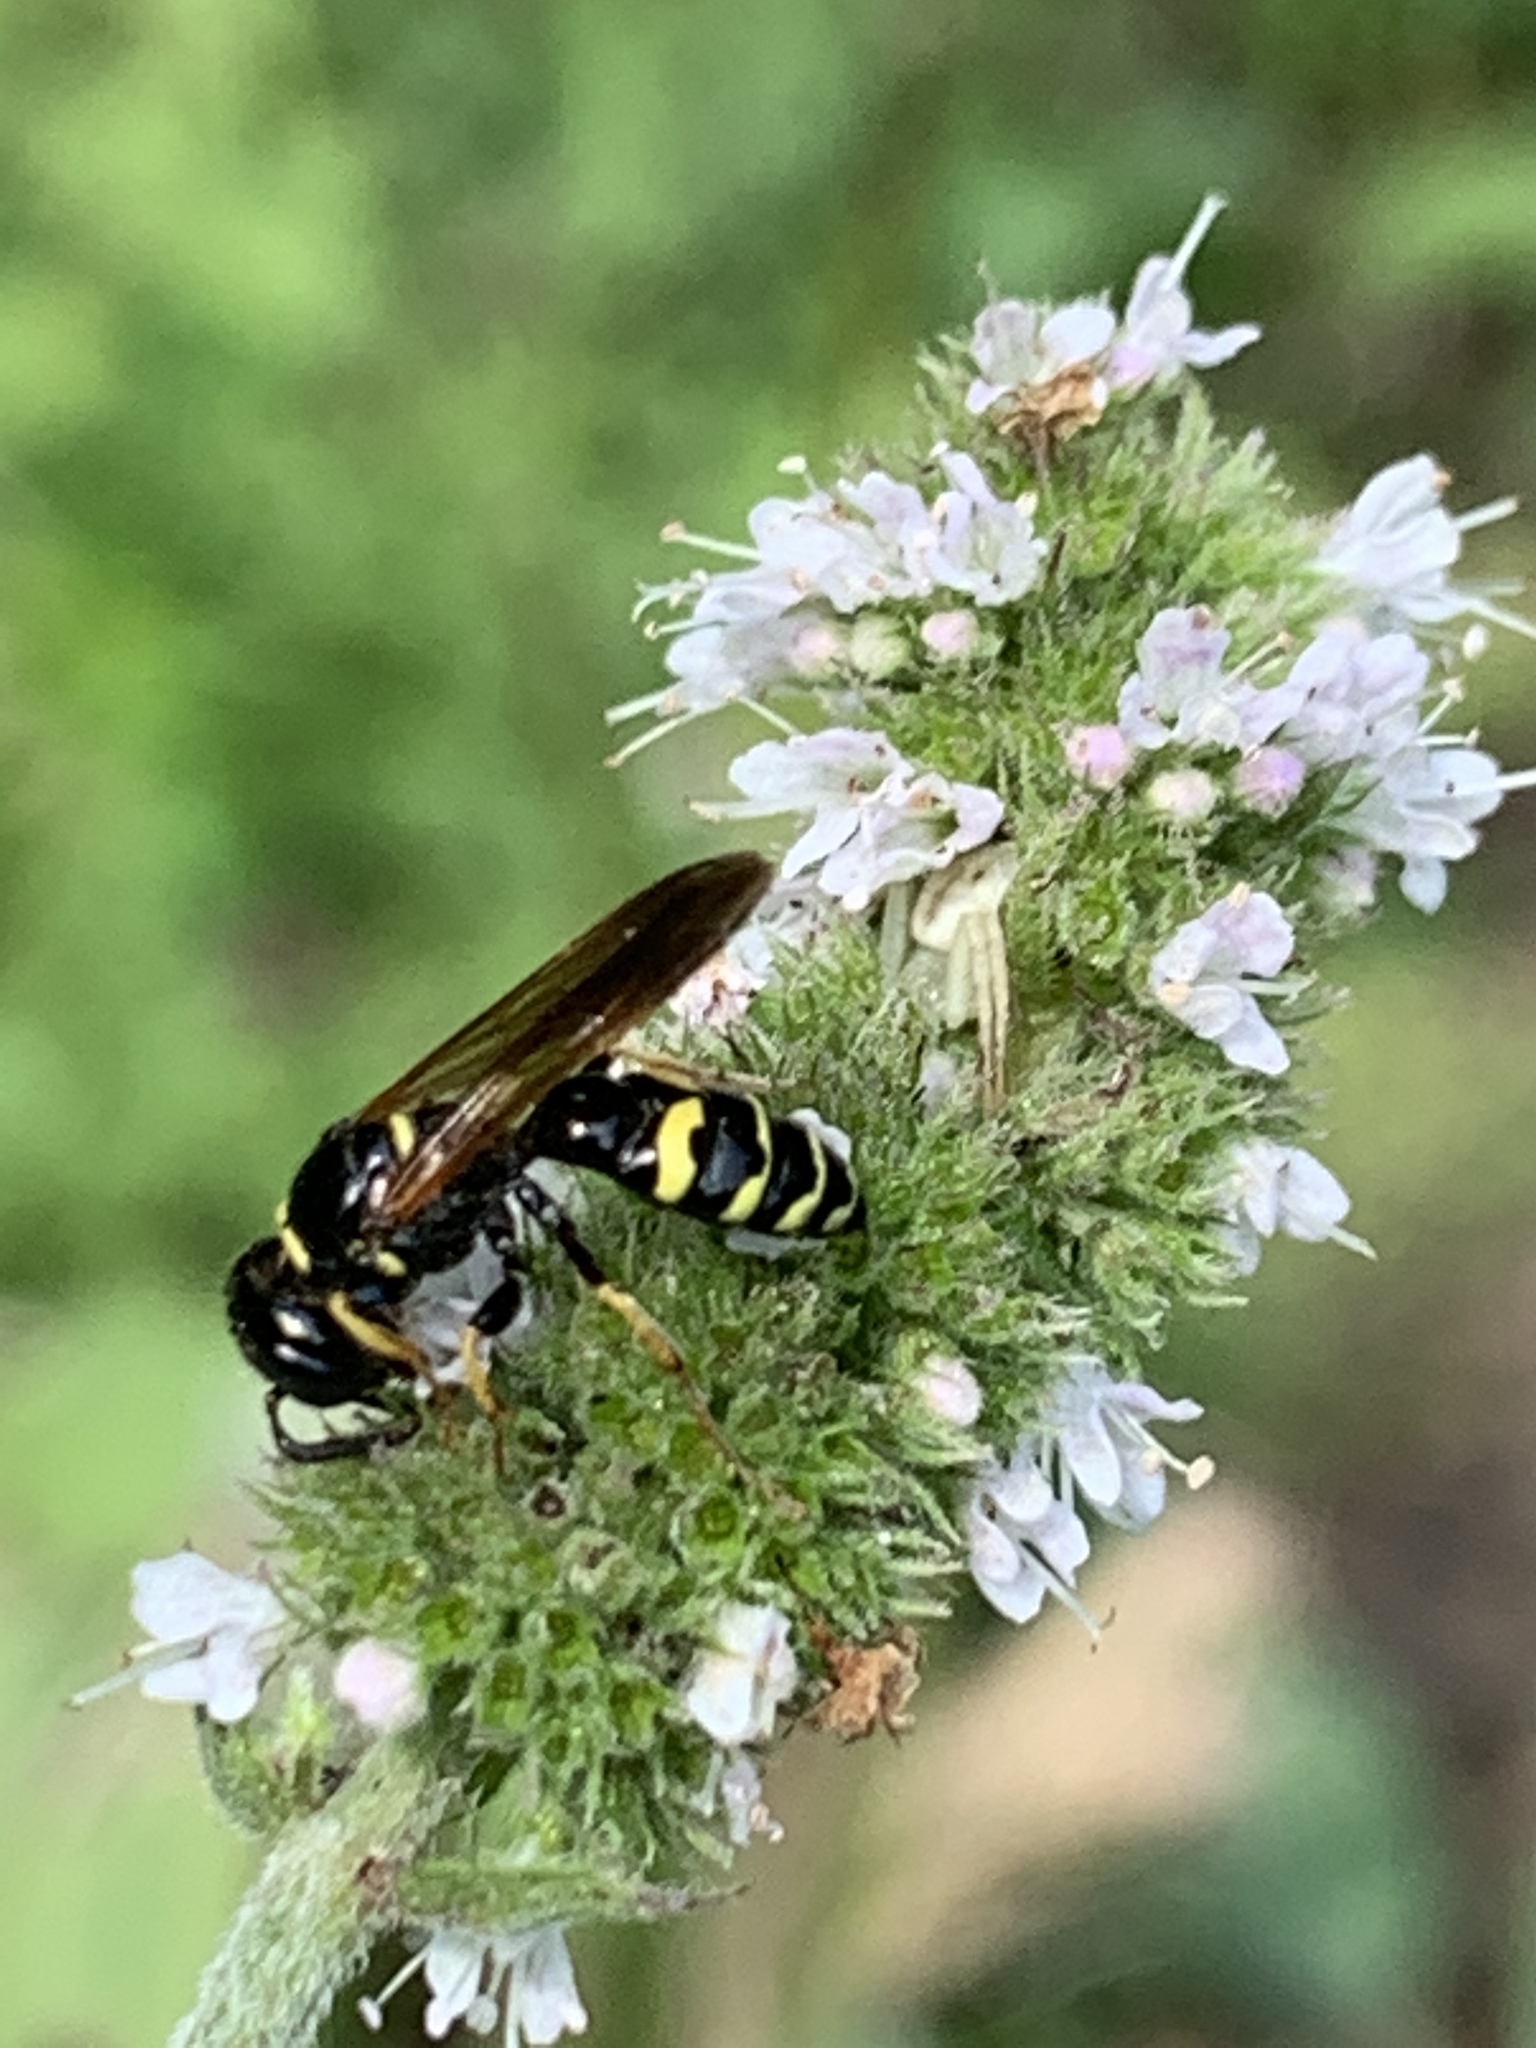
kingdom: Animalia
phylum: Arthropoda
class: Insecta
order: Hymenoptera
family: Crabronidae
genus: Philanthus
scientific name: Philanthus bilunatus
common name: Two moons beewolf
